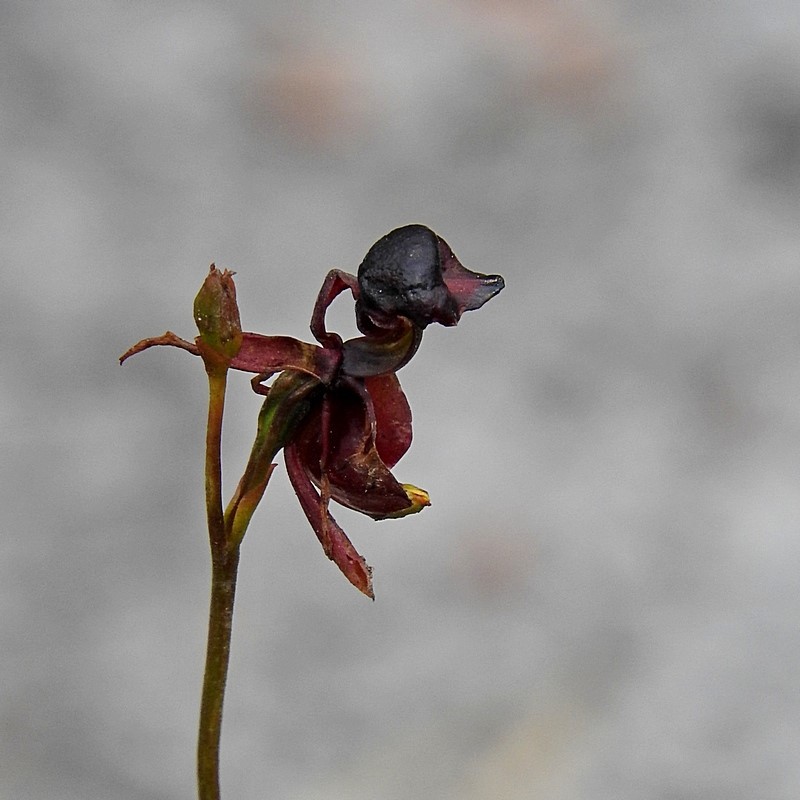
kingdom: Plantae
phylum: Tracheophyta
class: Liliopsida
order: Asparagales
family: Orchidaceae
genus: Caleana
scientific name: Caleana major
